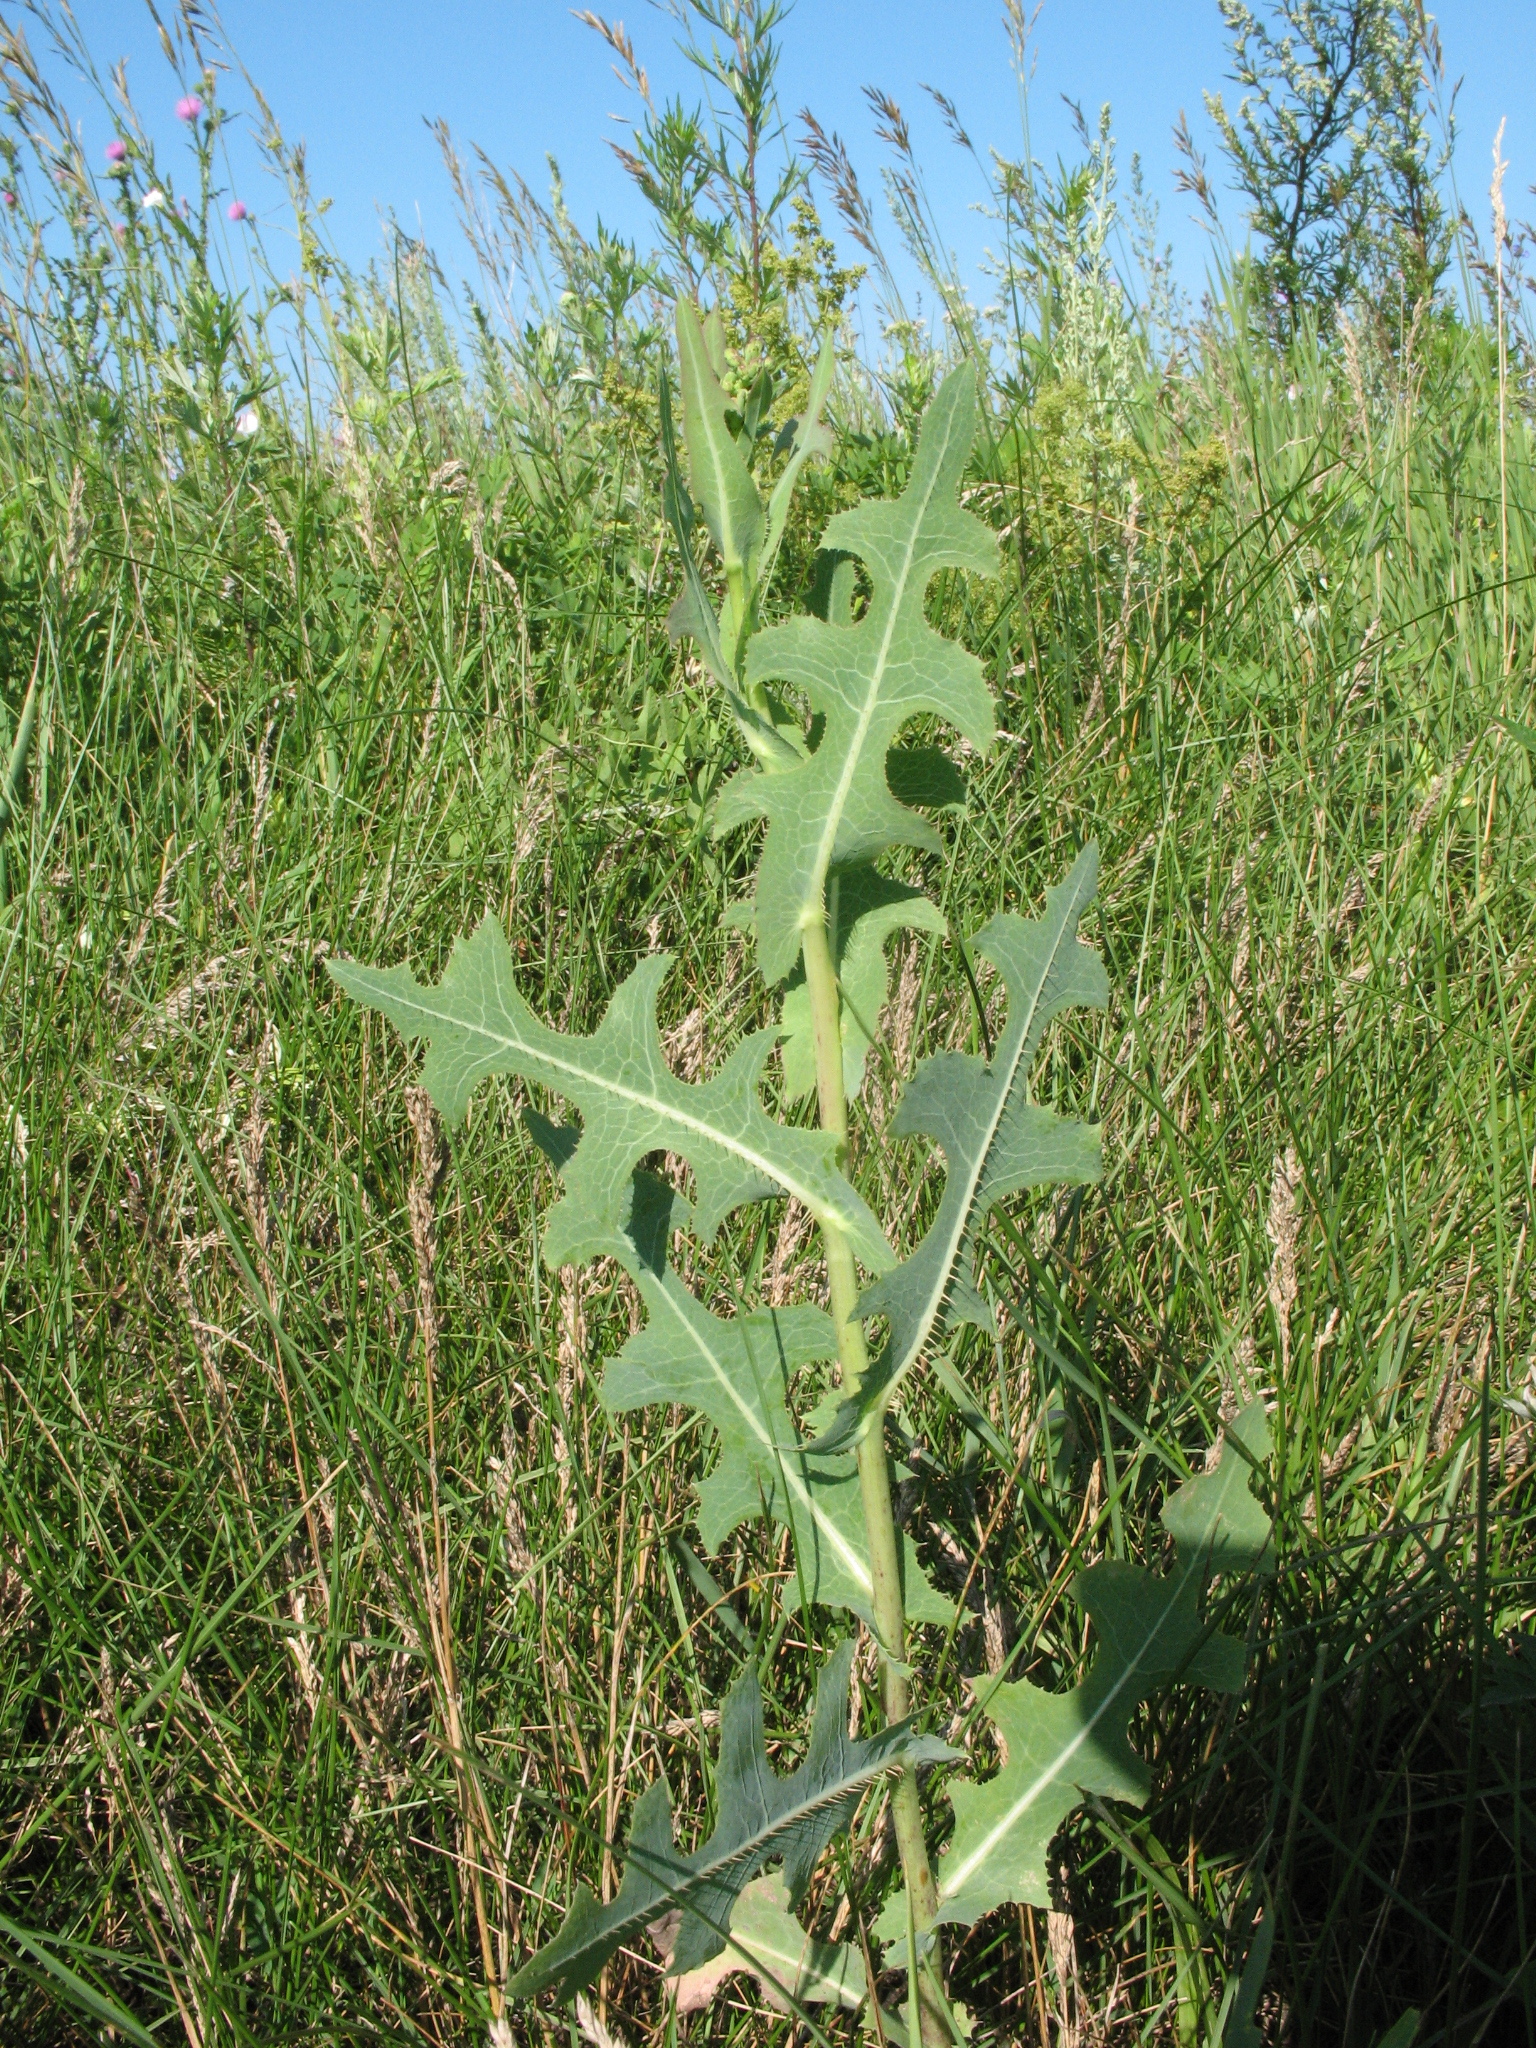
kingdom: Plantae
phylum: Tracheophyta
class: Magnoliopsida
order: Asterales
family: Asteraceae
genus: Lactuca
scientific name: Lactuca serriola
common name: Prickly lettuce
